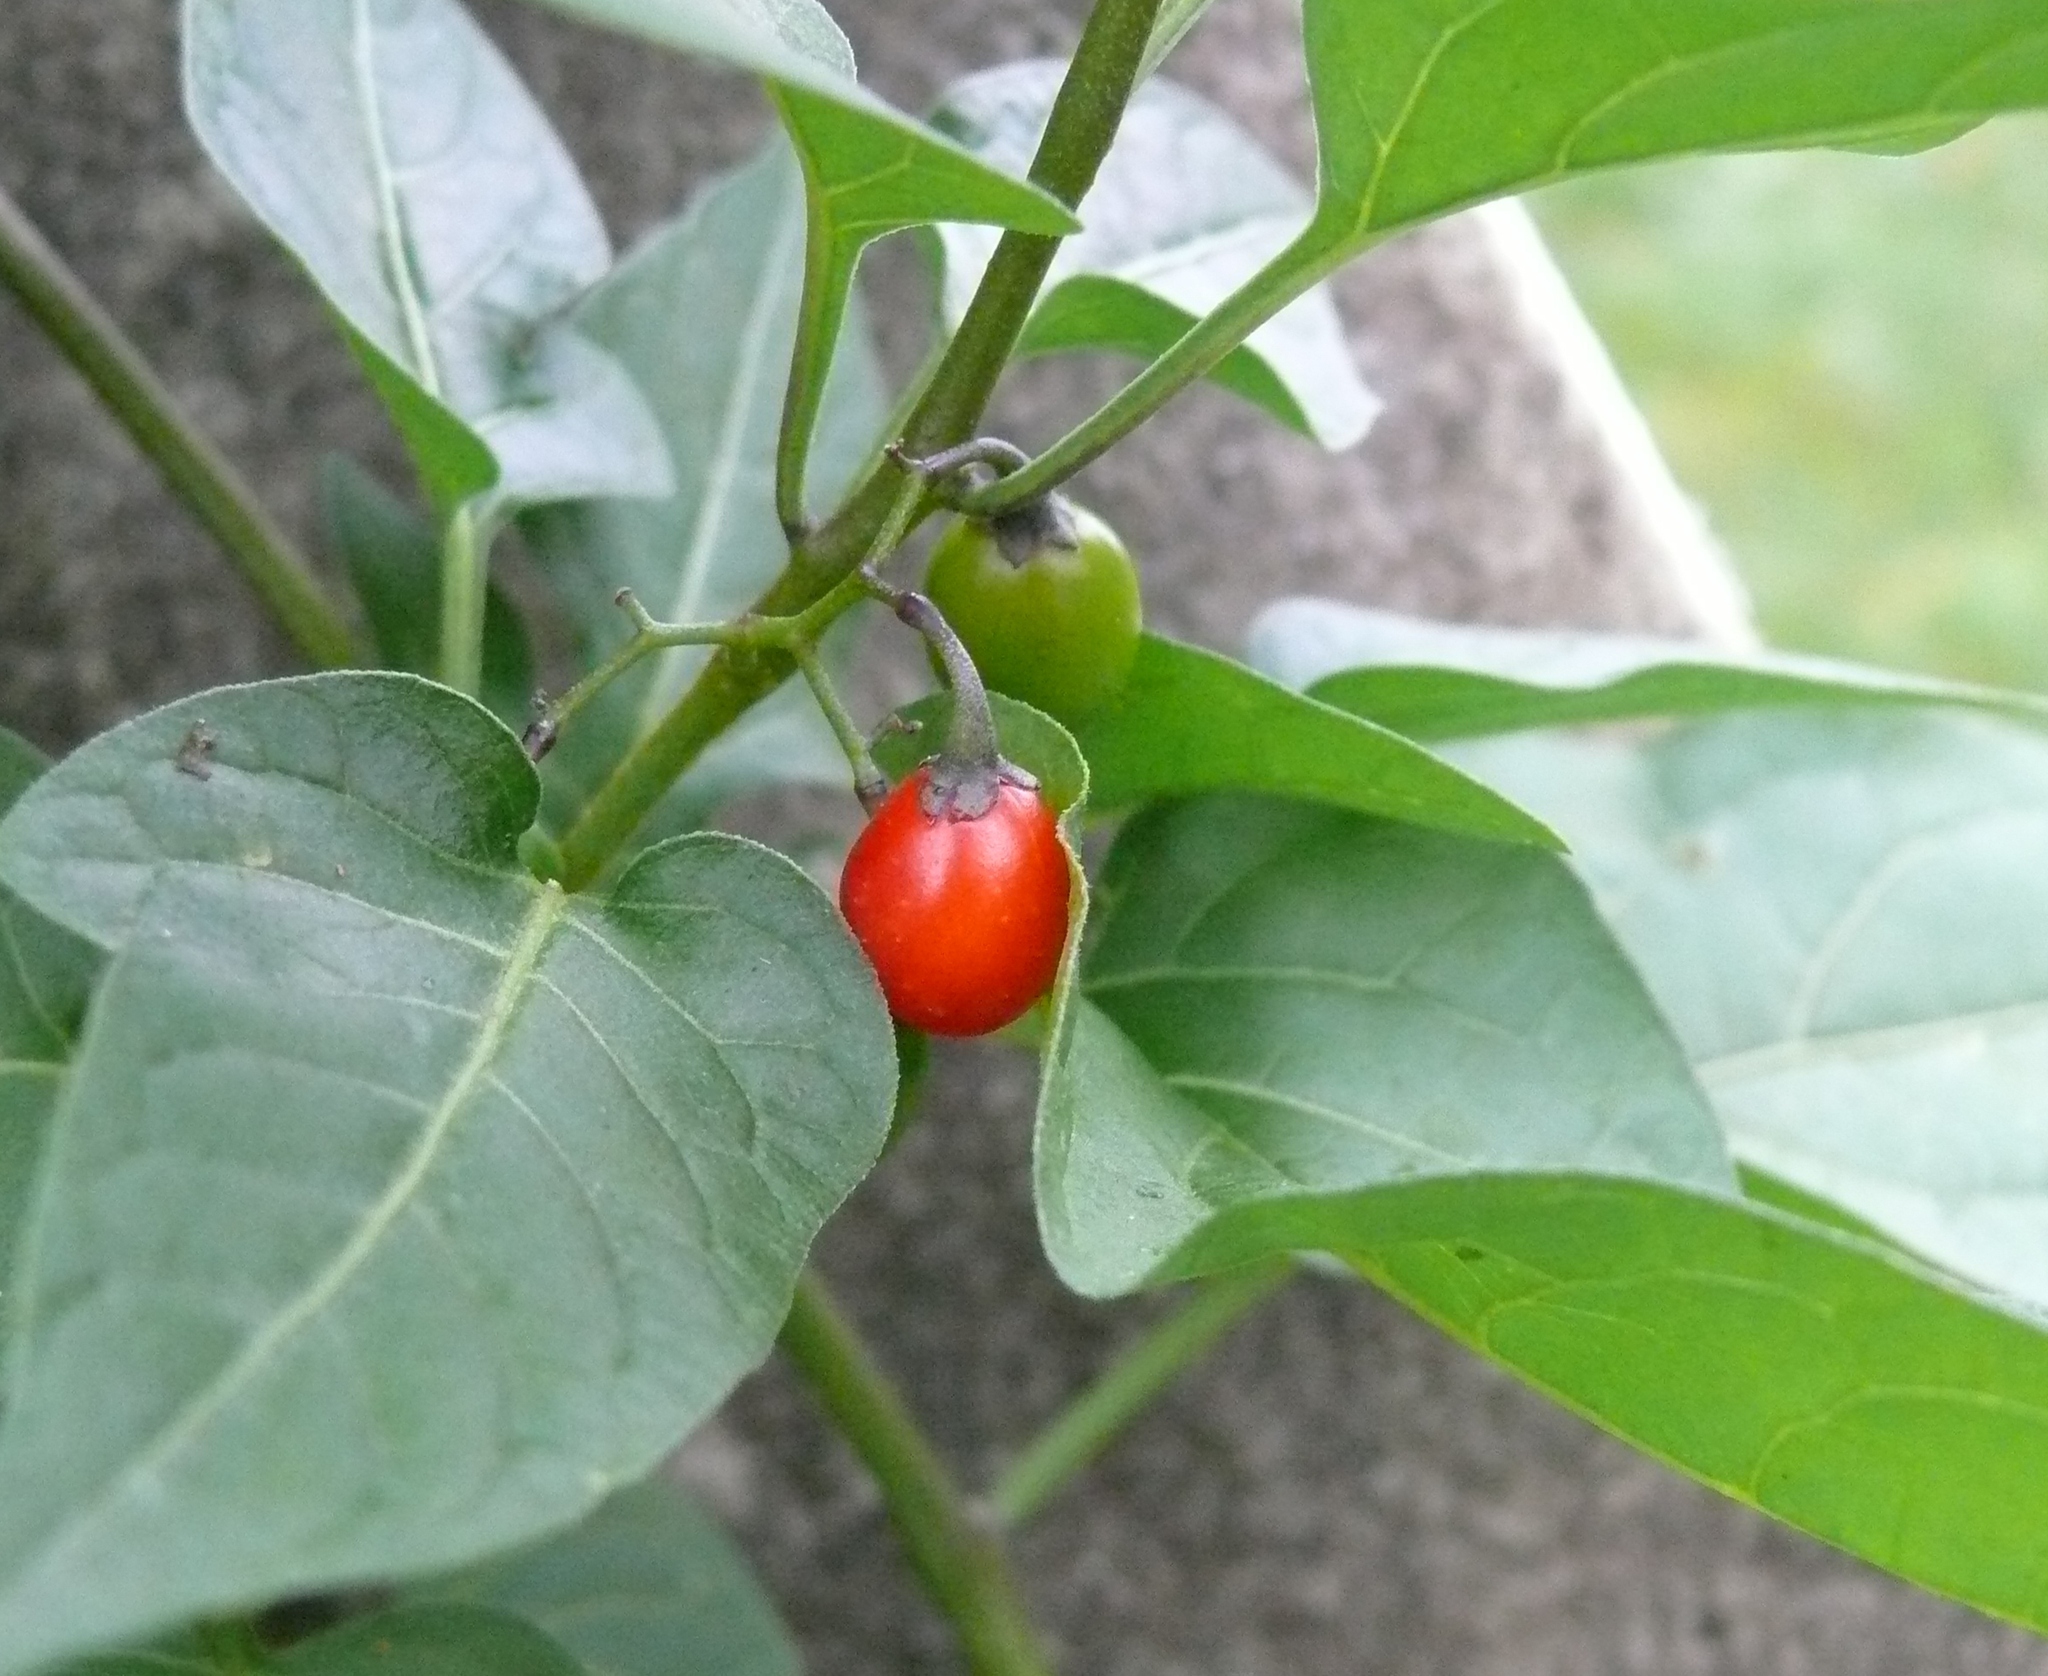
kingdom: Plantae
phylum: Tracheophyta
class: Magnoliopsida
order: Solanales
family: Solanaceae
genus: Solanum
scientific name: Solanum dulcamara
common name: Climbing nightshade
